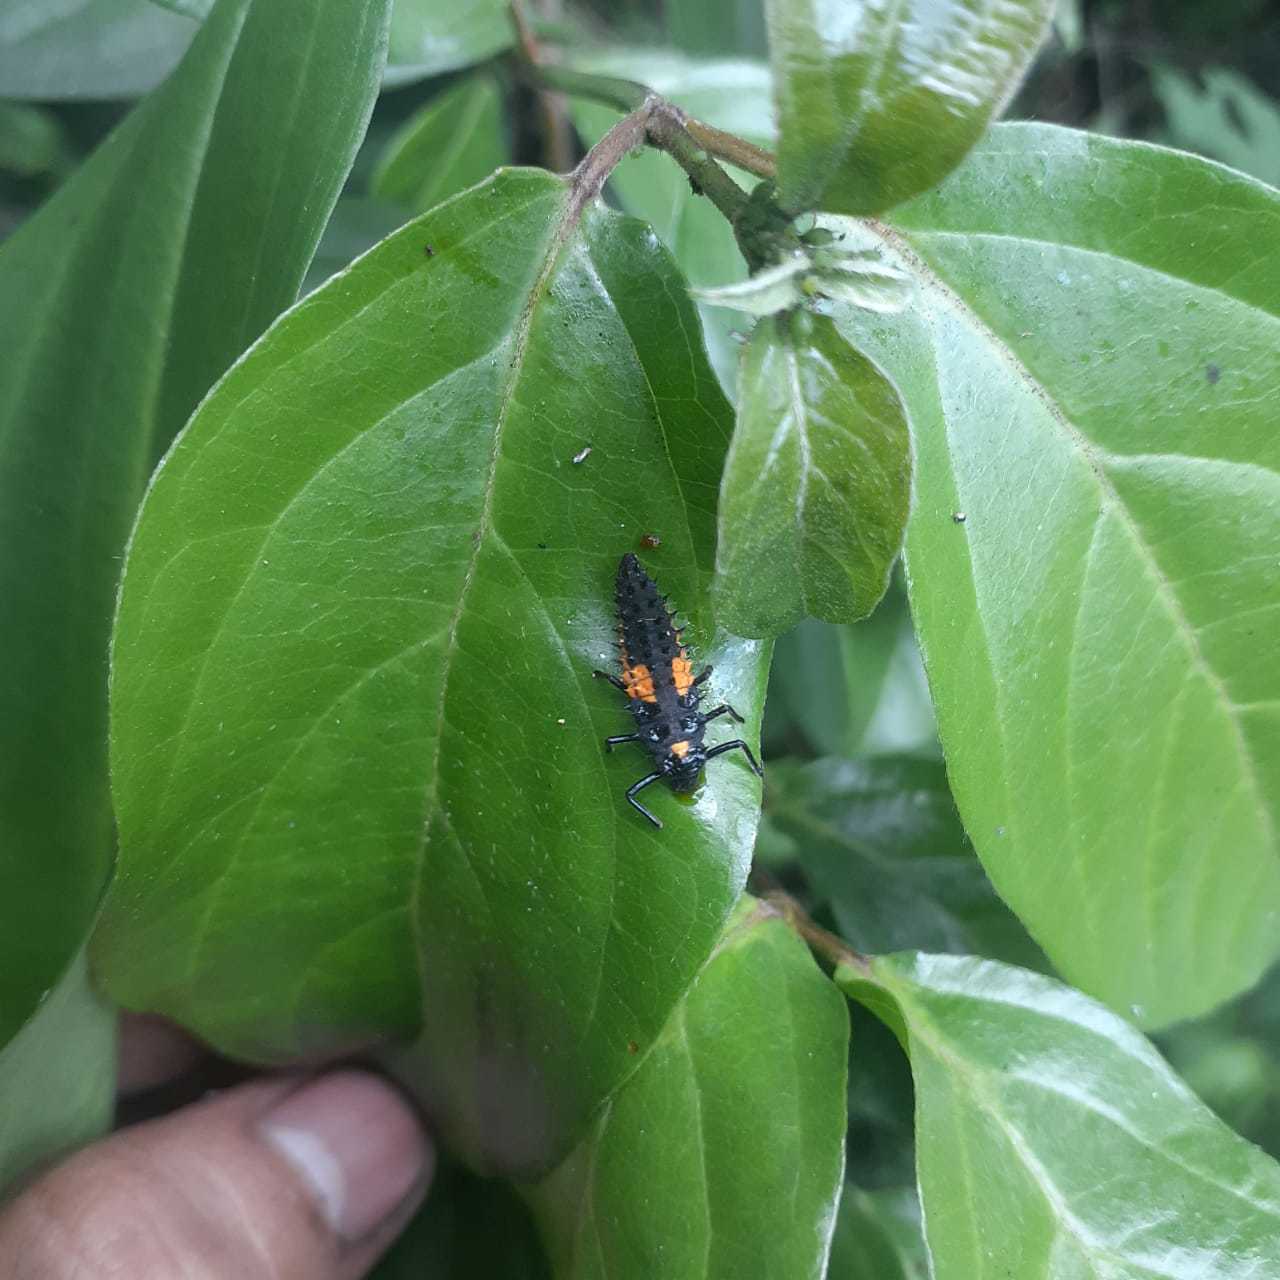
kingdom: Animalia
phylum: Arthropoda
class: Insecta
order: Coleoptera
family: Coccinellidae
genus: Harmonia
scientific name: Harmonia axyridis
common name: Harlequin ladybird
